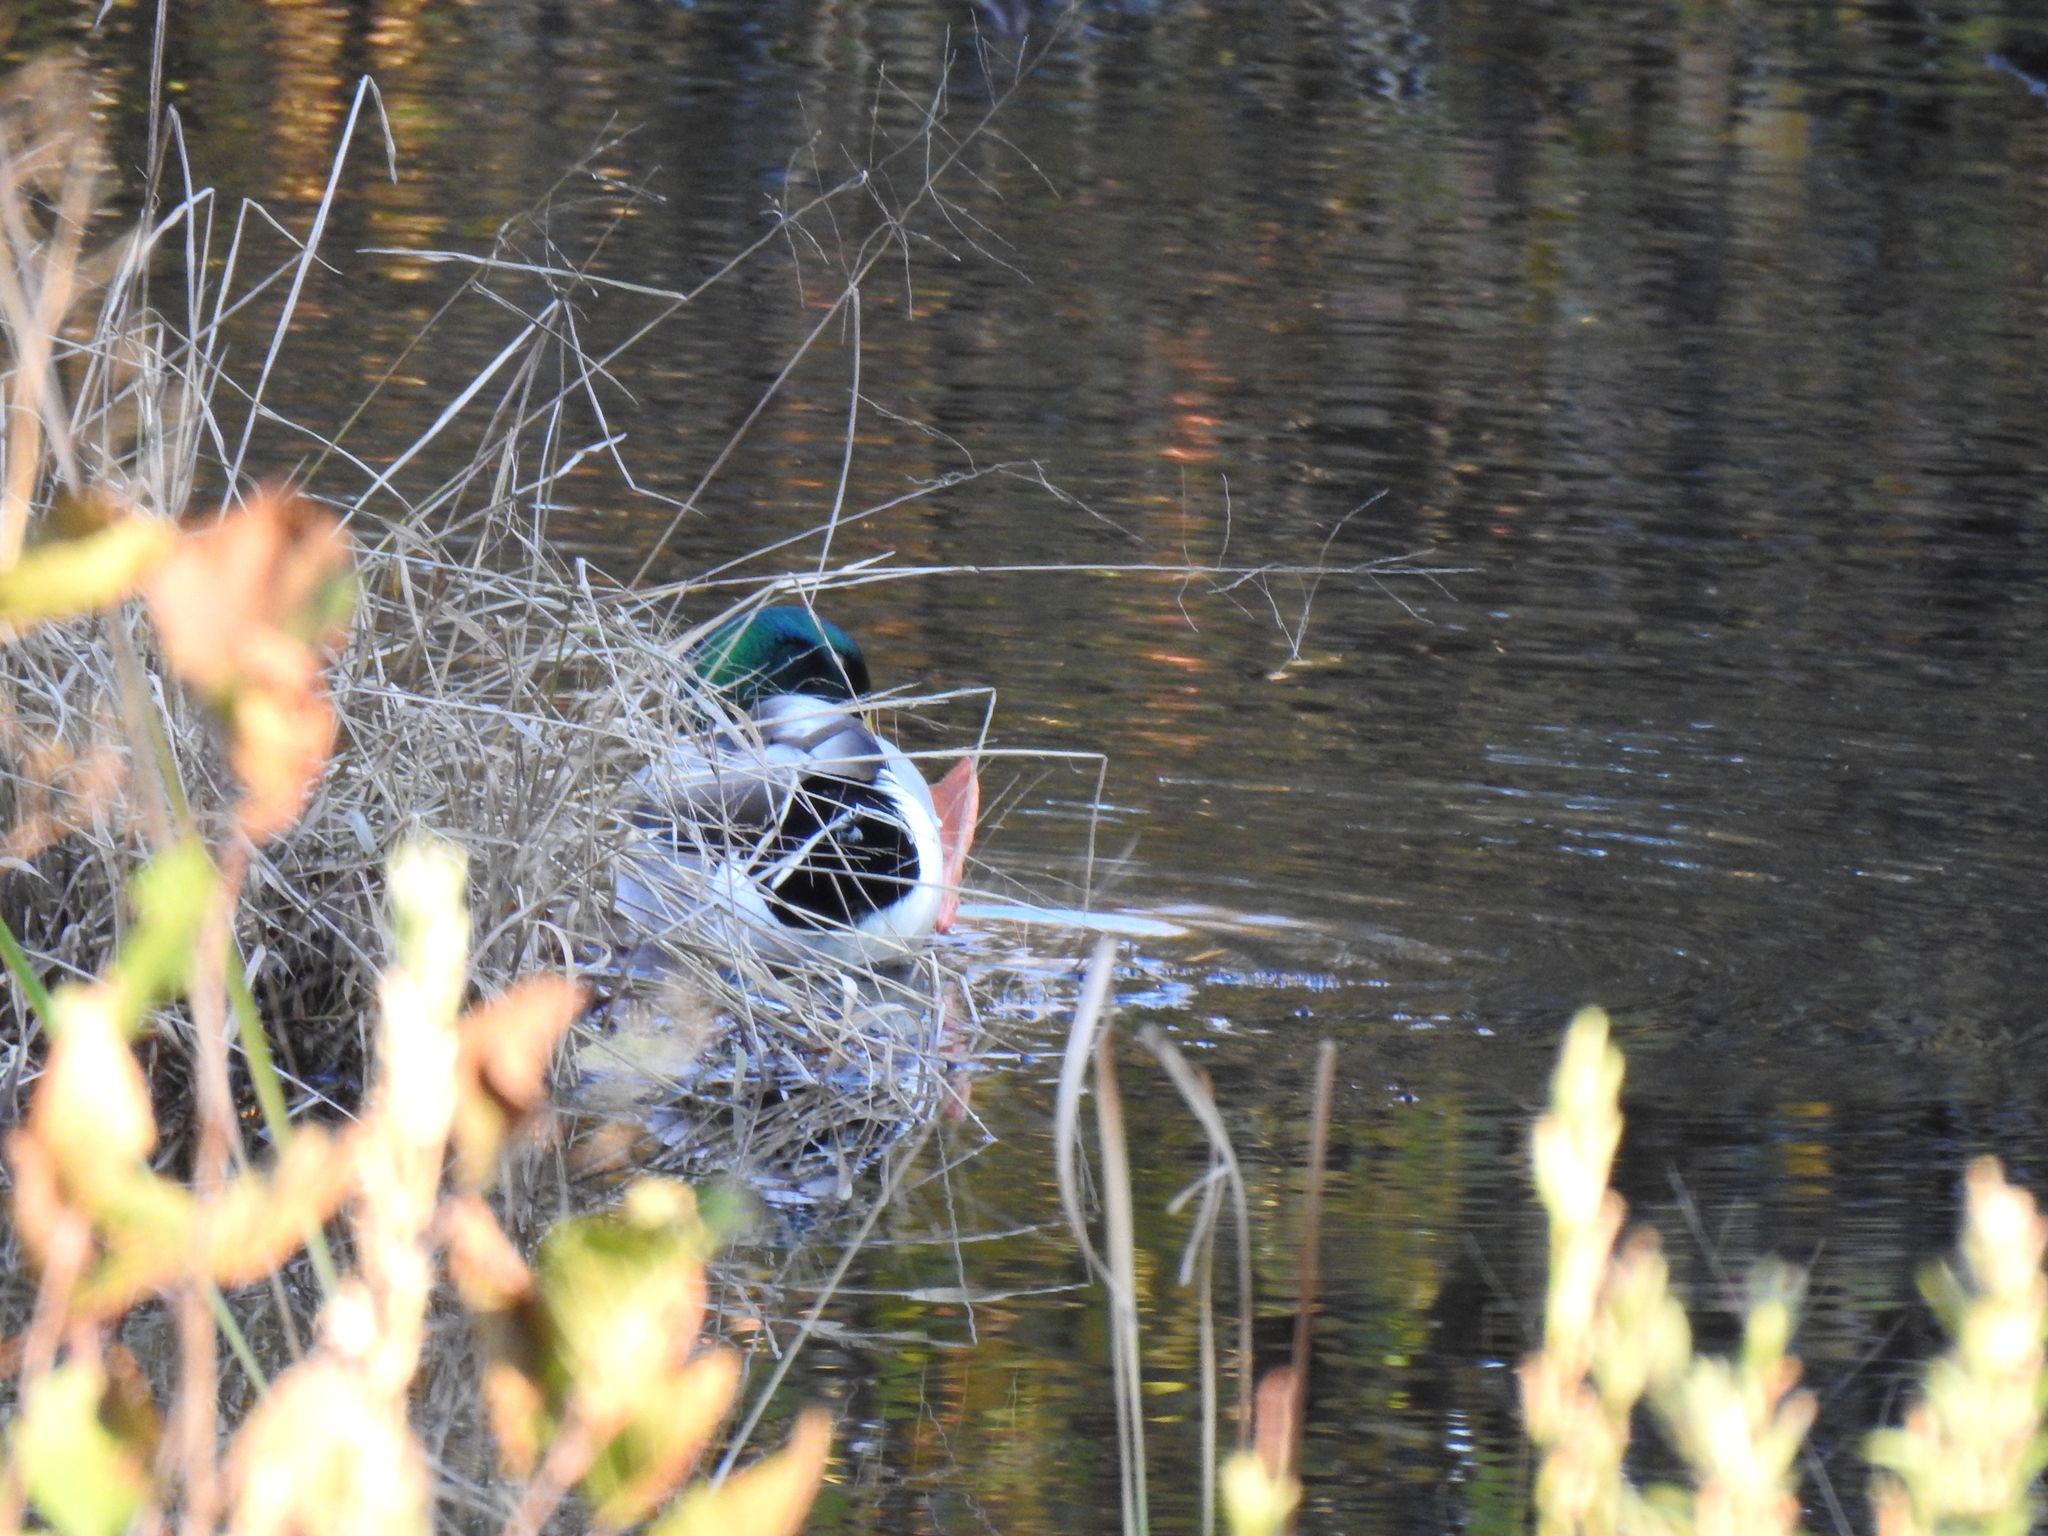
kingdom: Animalia
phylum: Chordata
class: Aves
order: Anseriformes
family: Anatidae
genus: Anas
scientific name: Anas platyrhynchos
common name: Mallard
